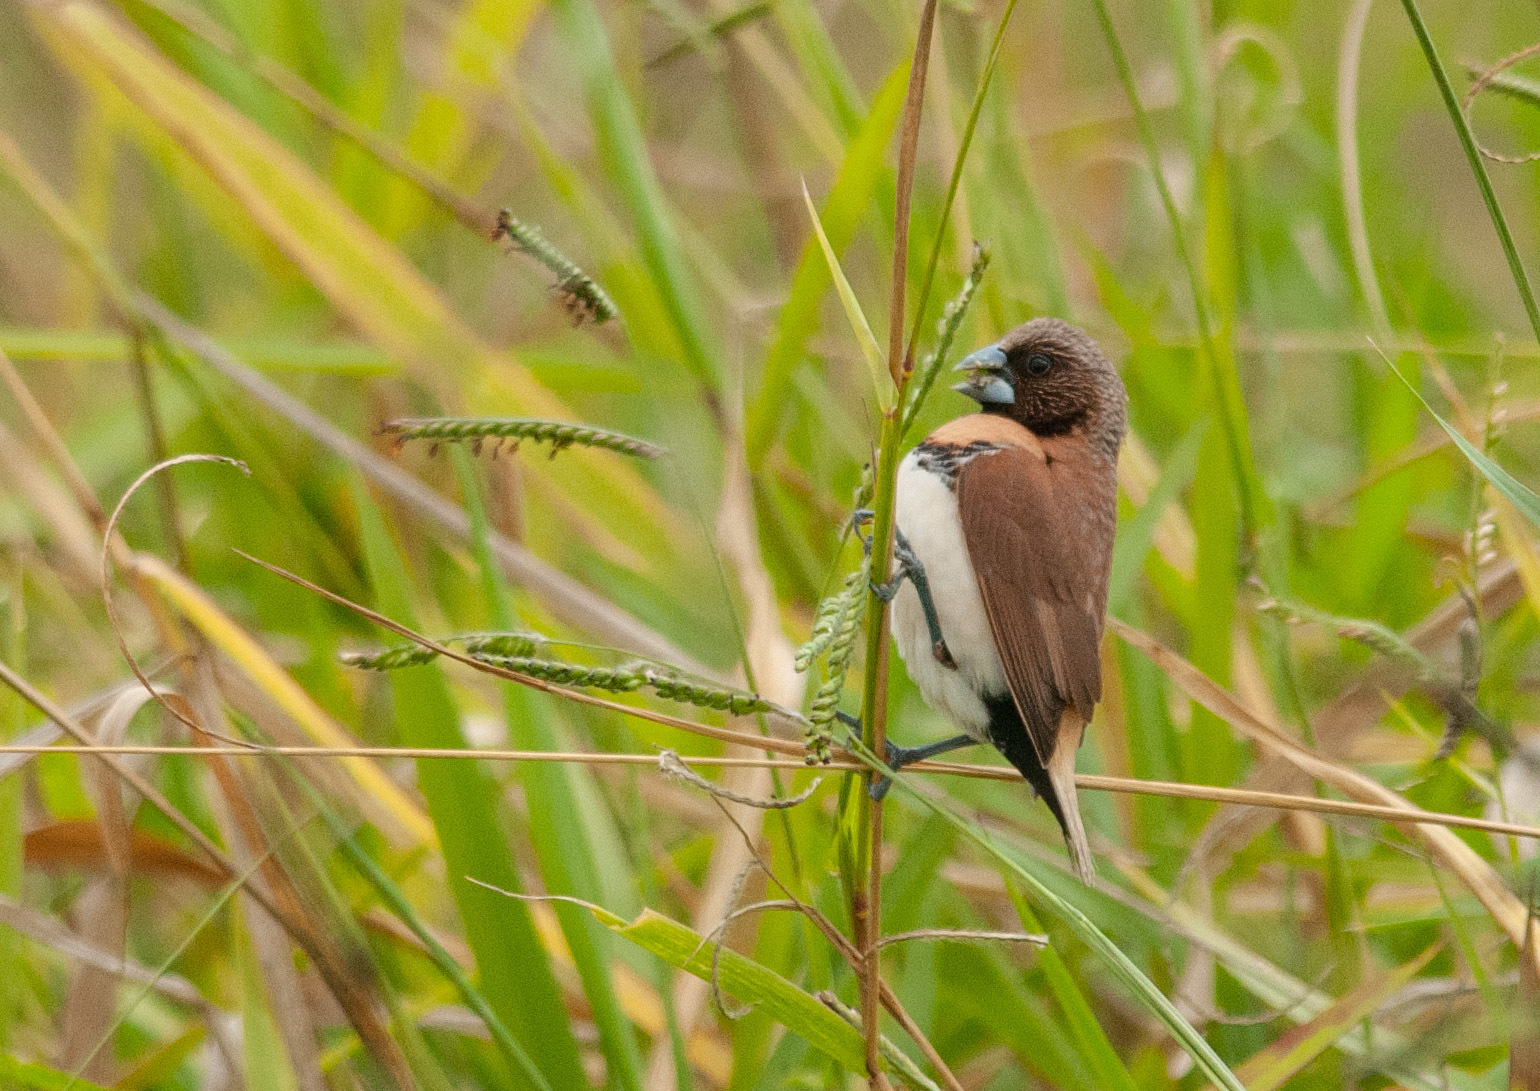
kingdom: Animalia
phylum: Chordata
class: Aves
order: Passeriformes
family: Estrildidae
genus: Lonchura
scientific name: Lonchura castaneothorax
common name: Chestnut-breasted mannikin
